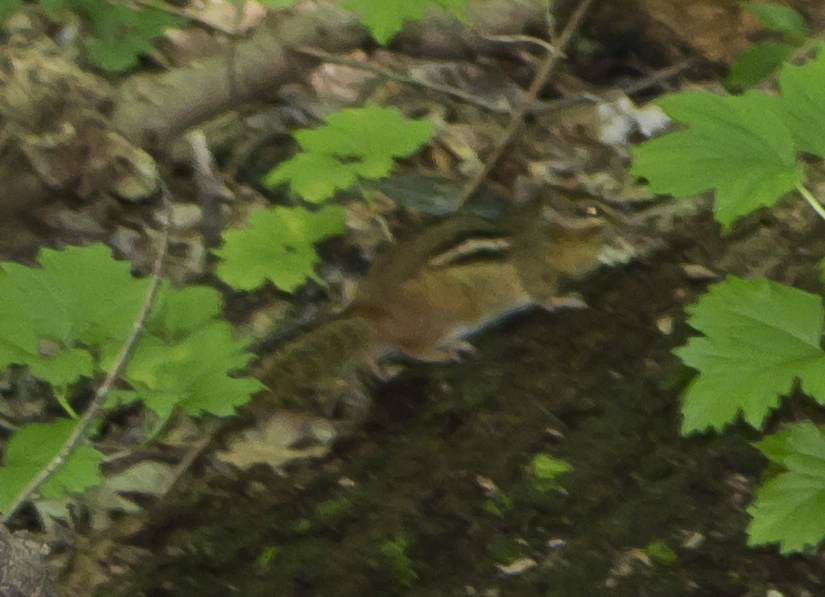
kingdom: Animalia
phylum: Chordata
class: Mammalia
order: Rodentia
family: Sciuridae
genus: Tamias
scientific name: Tamias striatus
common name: Eastern chipmunk
